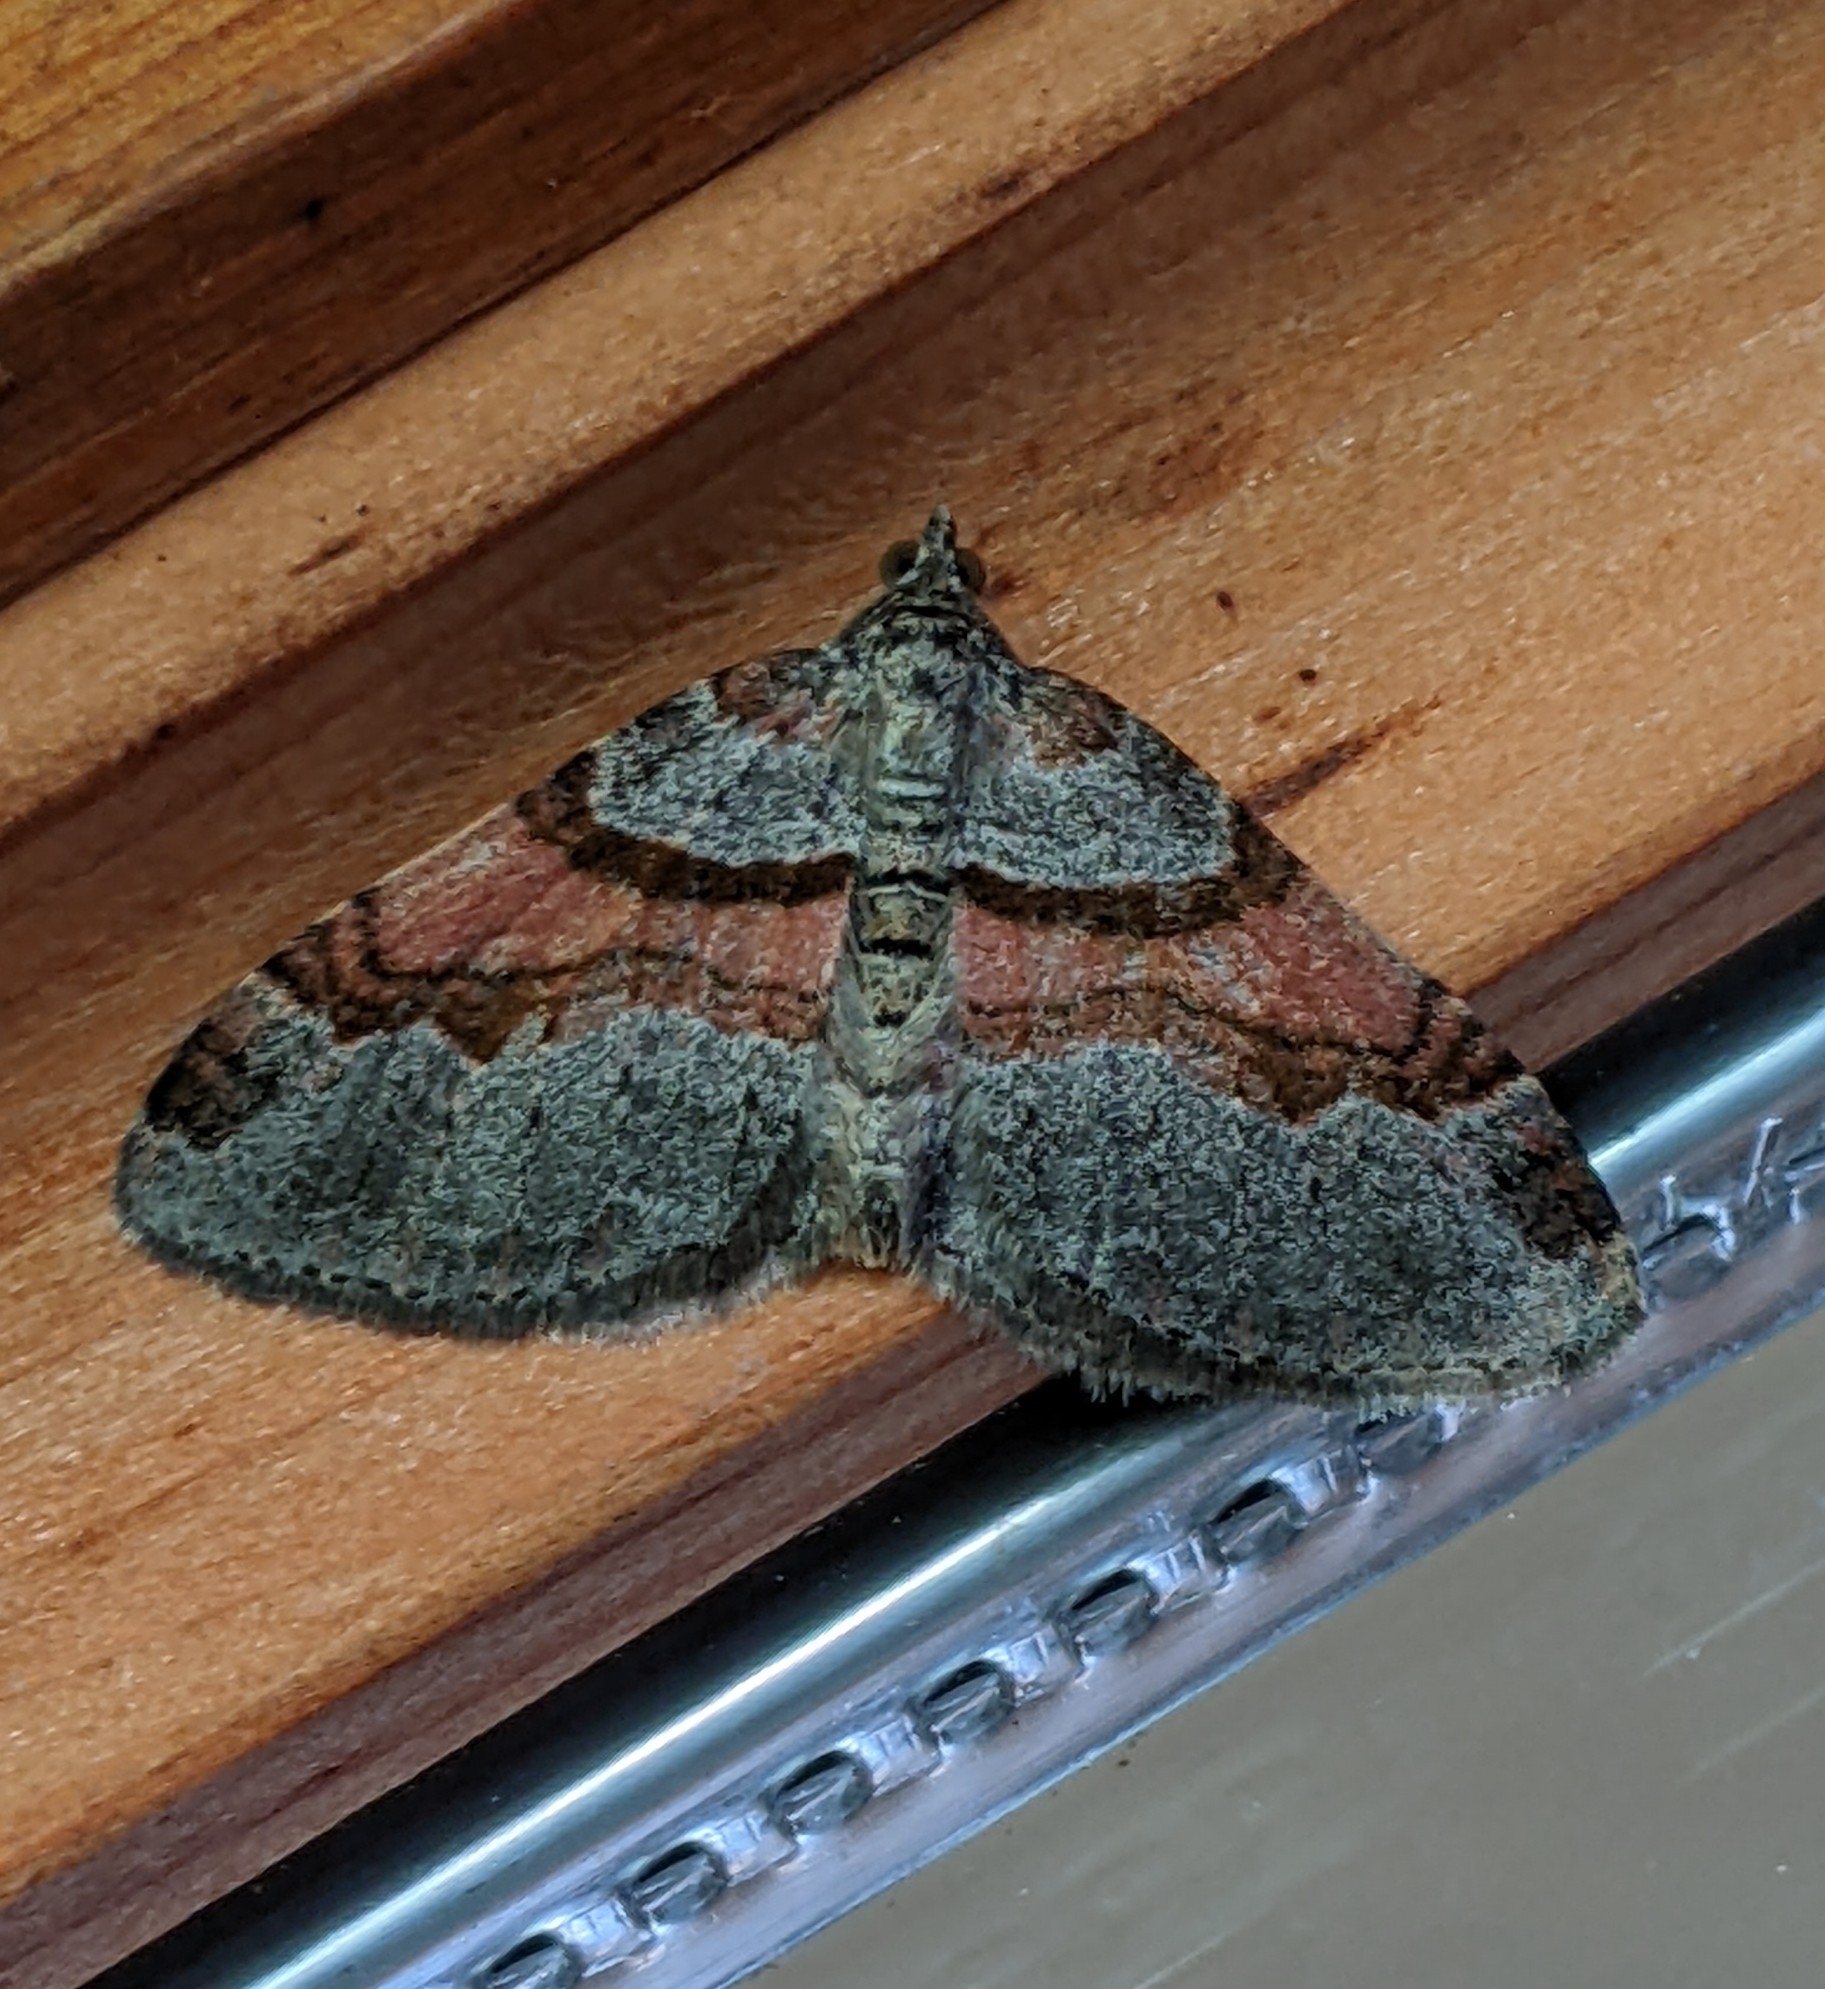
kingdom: Animalia
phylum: Arthropoda
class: Insecta
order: Lepidoptera
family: Geometridae
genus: Xanthorhoe
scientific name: Xanthorhoe labradorensis
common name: Labrador carpet
